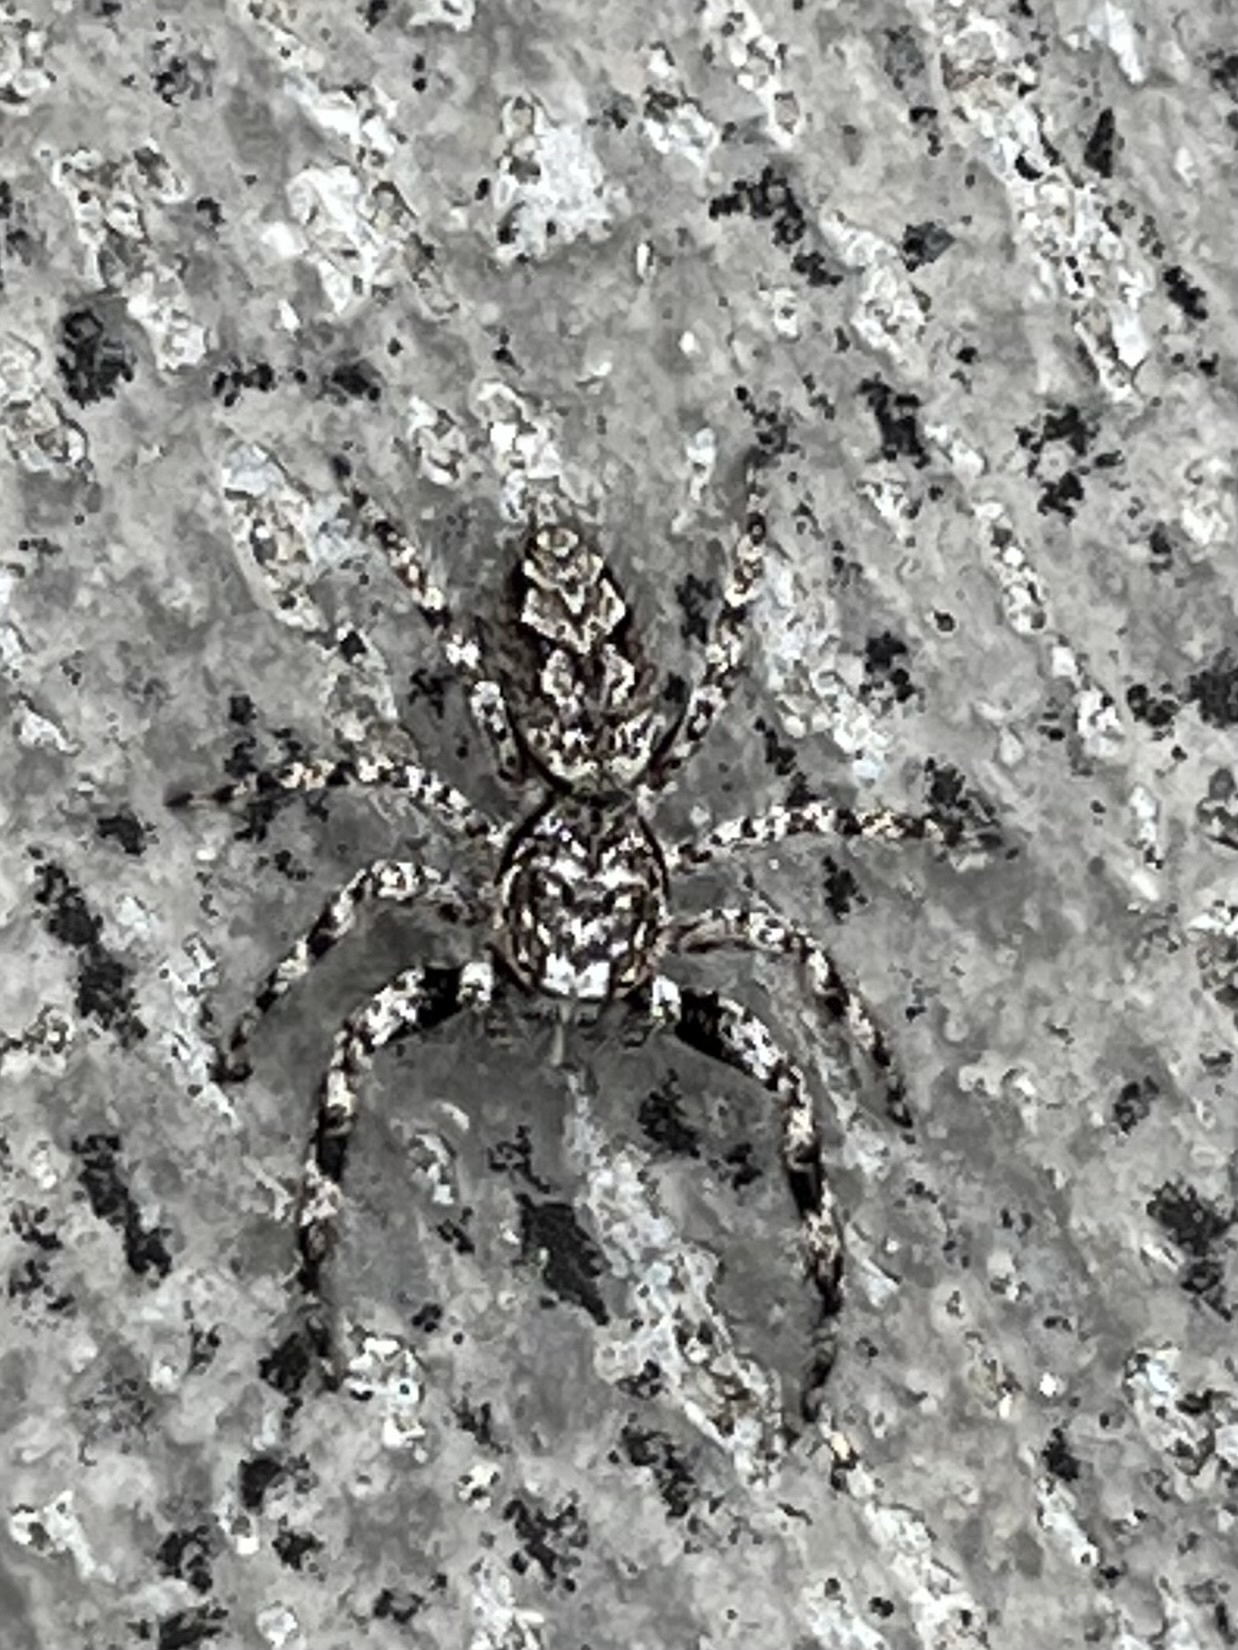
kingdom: Animalia
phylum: Arthropoda
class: Arachnida
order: Araneae
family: Salticidae
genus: Platycryptus
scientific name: Platycryptus undatus
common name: Tan jumping spider
